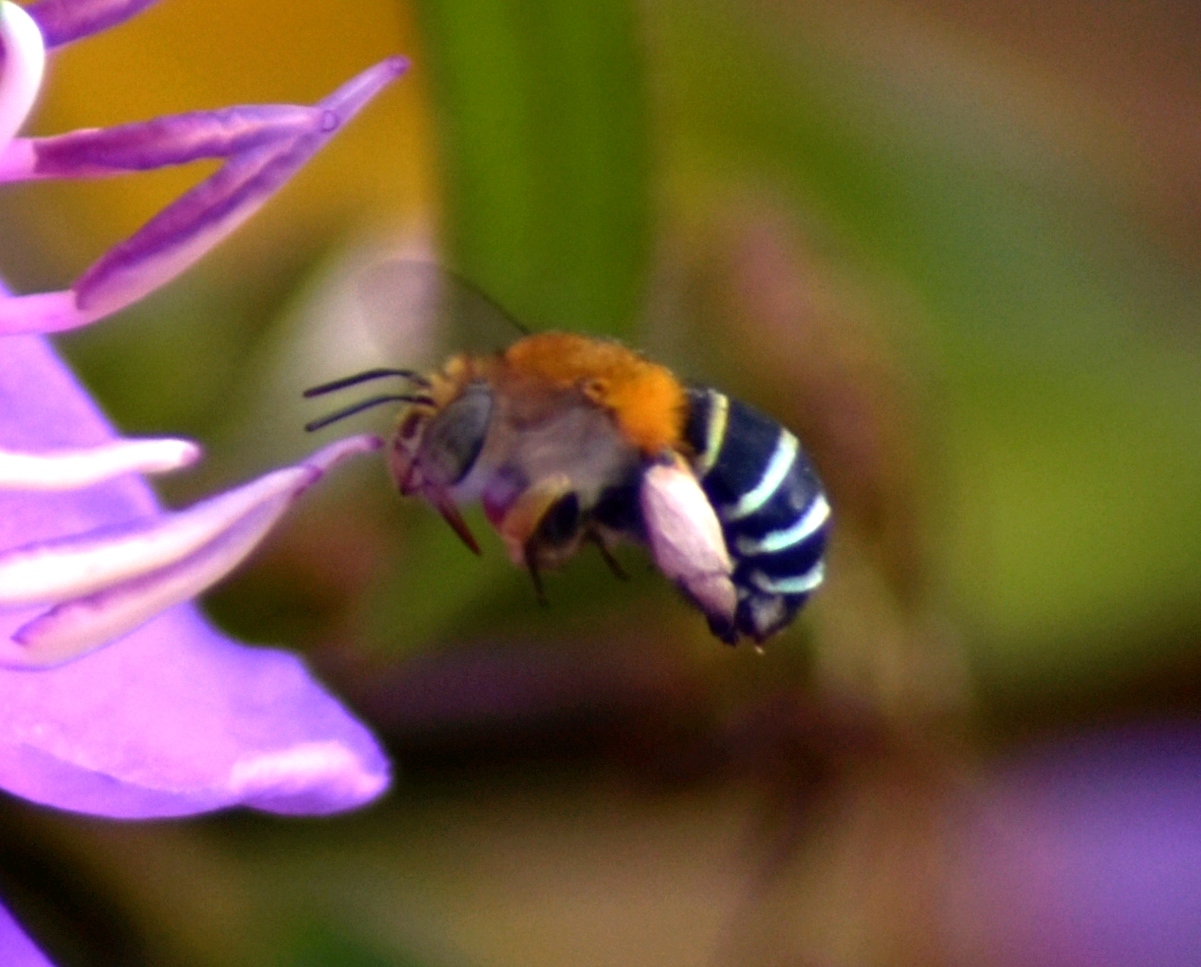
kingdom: Animalia
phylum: Arthropoda
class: Insecta
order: Hymenoptera
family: Apidae
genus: Amegilla
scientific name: Amegilla cingulata
